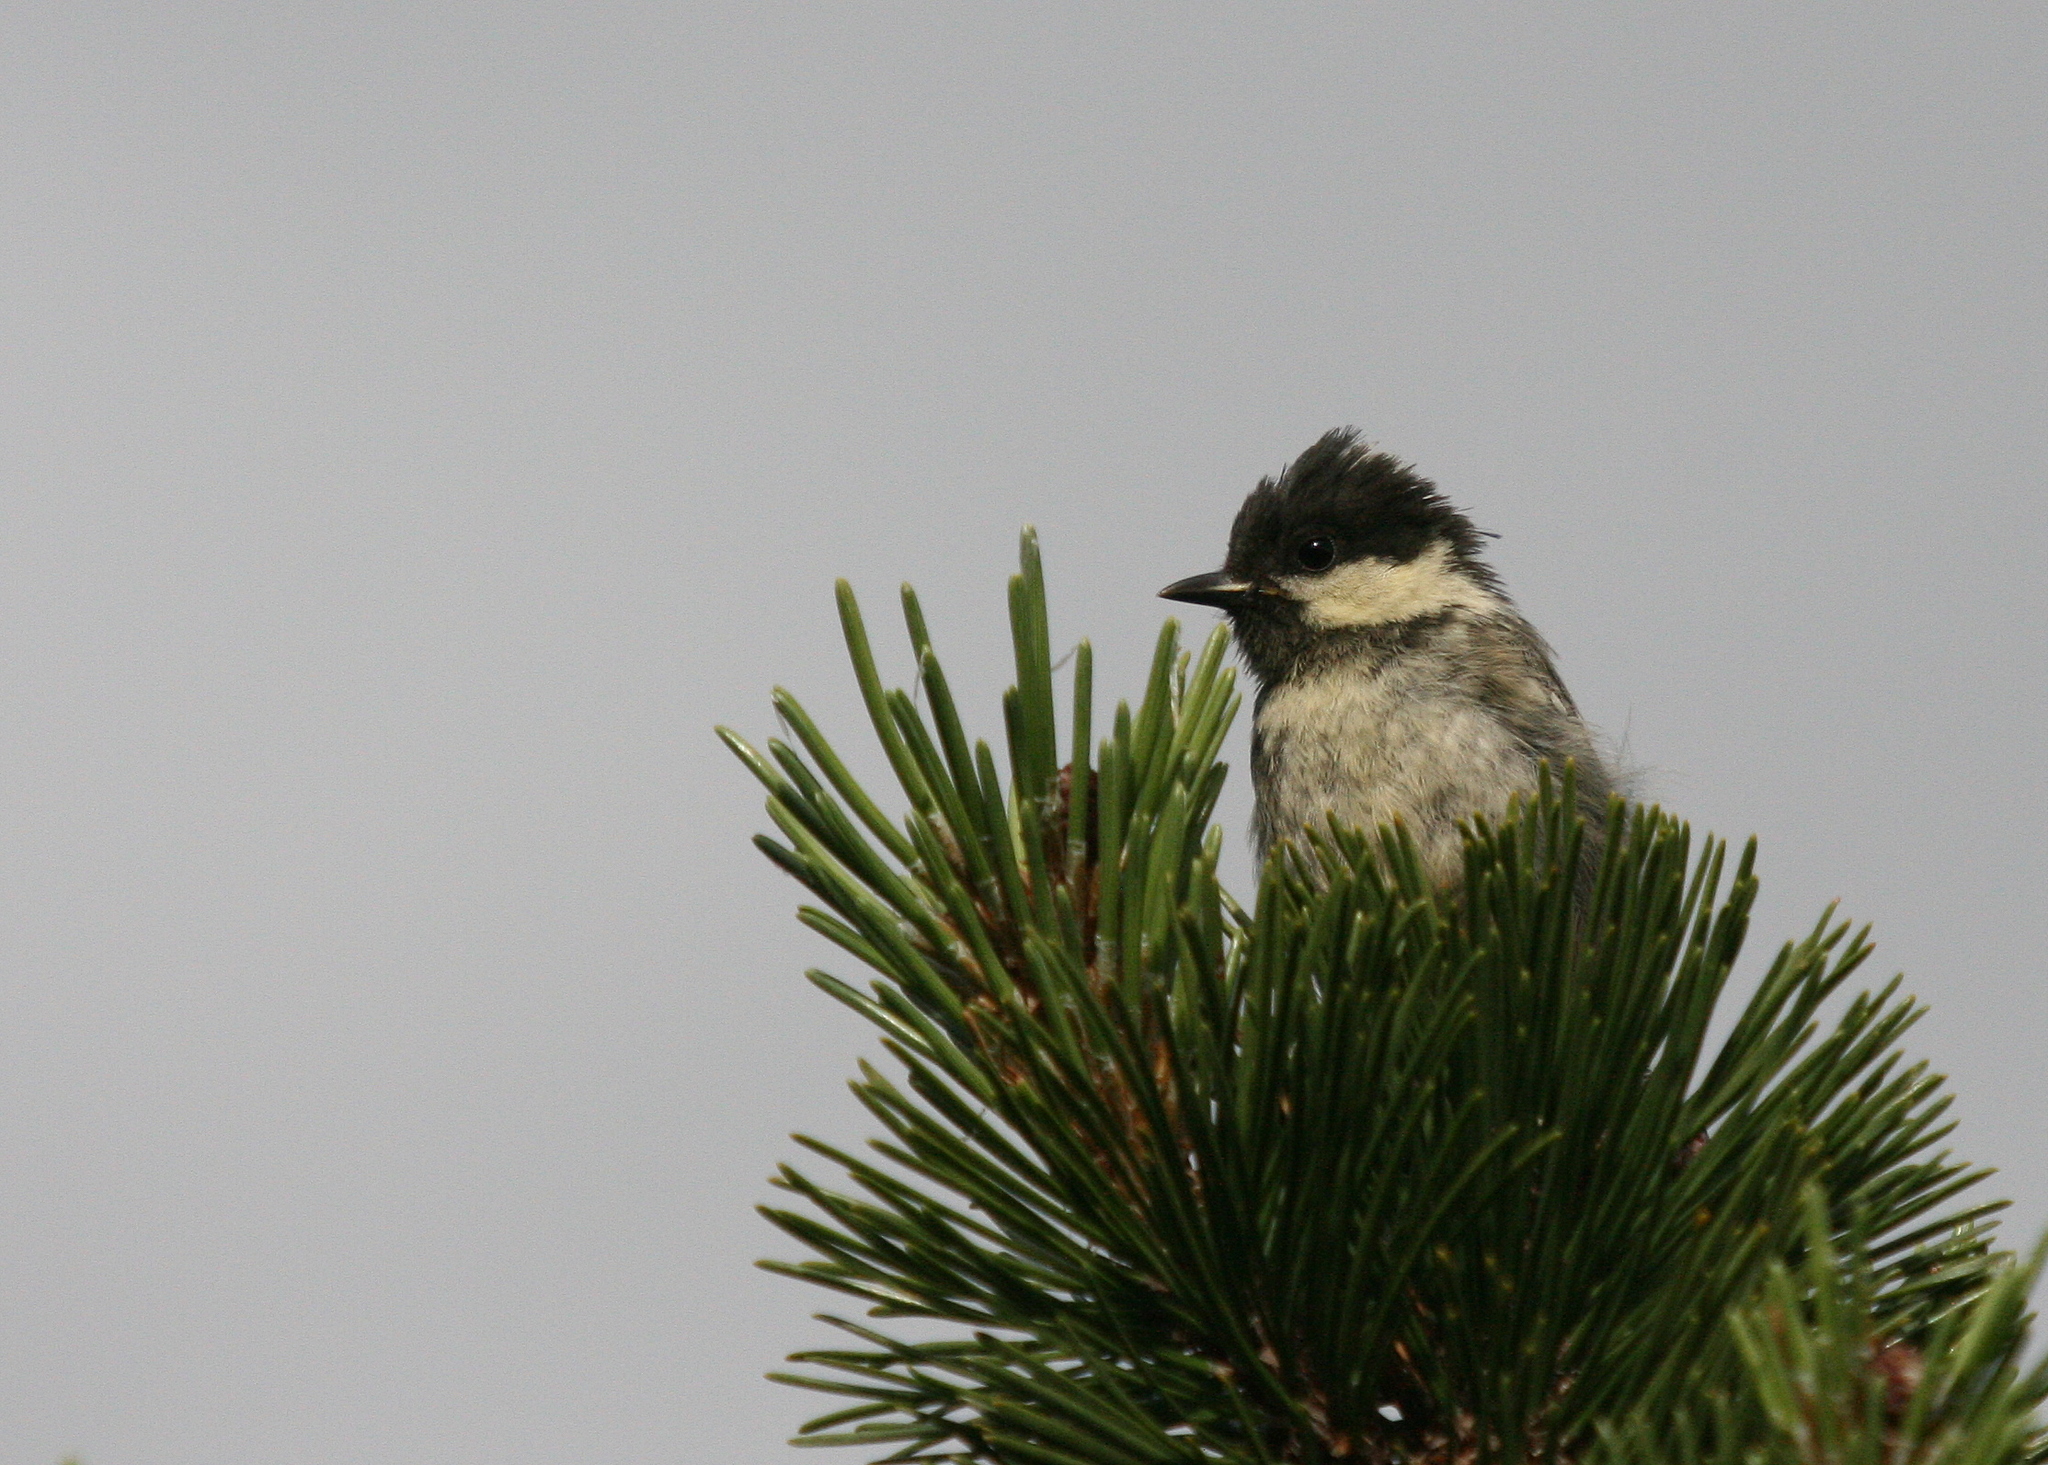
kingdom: Animalia
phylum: Chordata
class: Aves
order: Passeriformes
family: Paridae
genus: Periparus
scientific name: Periparus ater
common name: Coal tit
